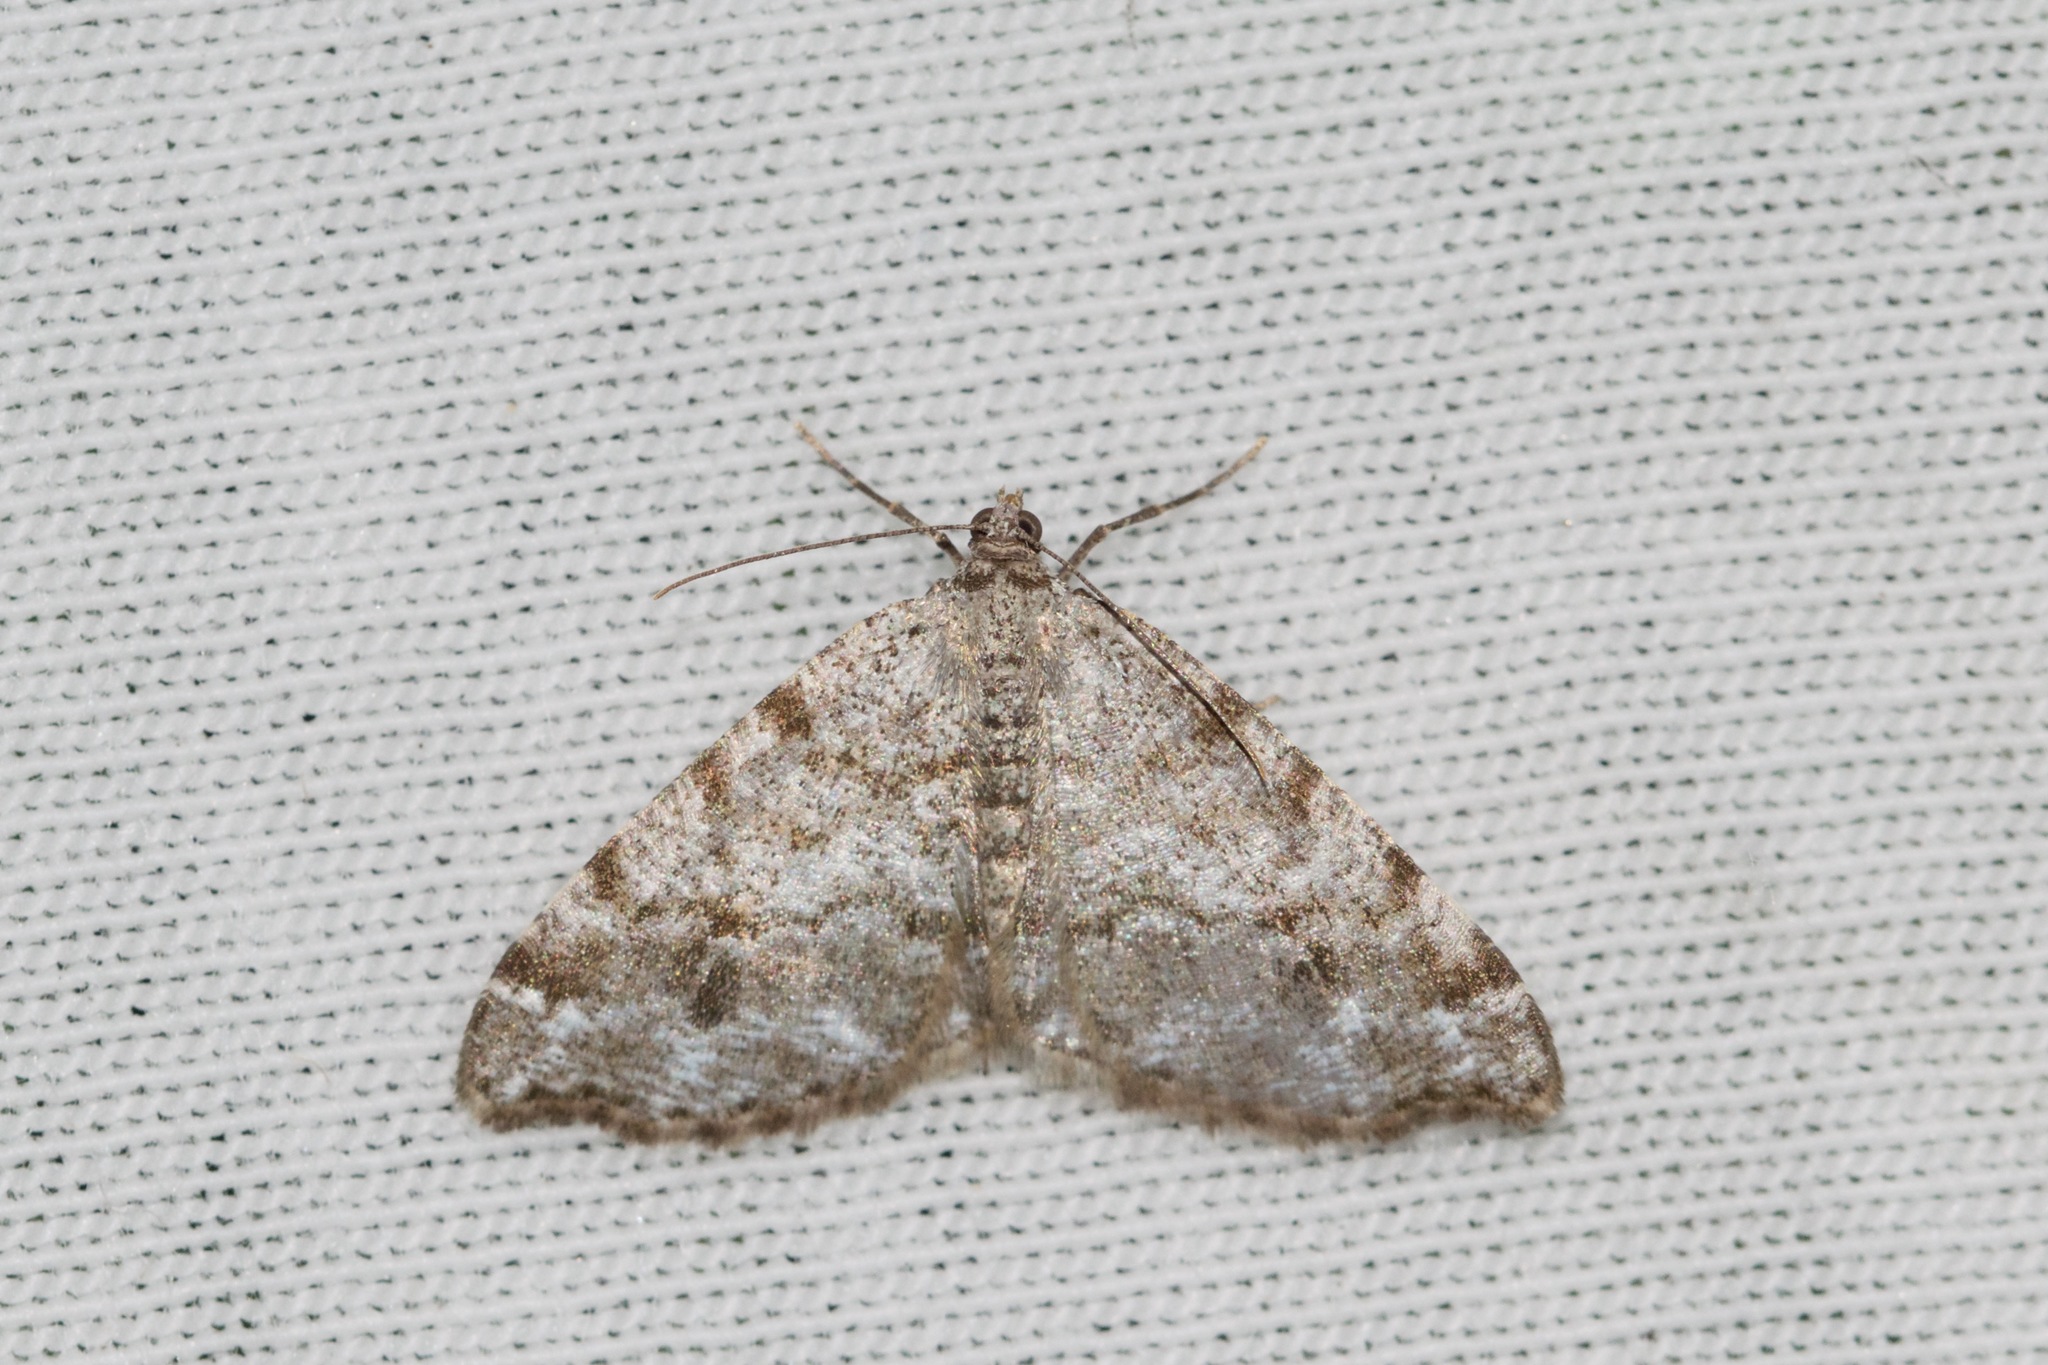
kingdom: Animalia
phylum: Arthropoda
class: Insecta
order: Lepidoptera
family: Geometridae
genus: Macaria
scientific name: Macaria pinistrobata
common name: White pine angle
